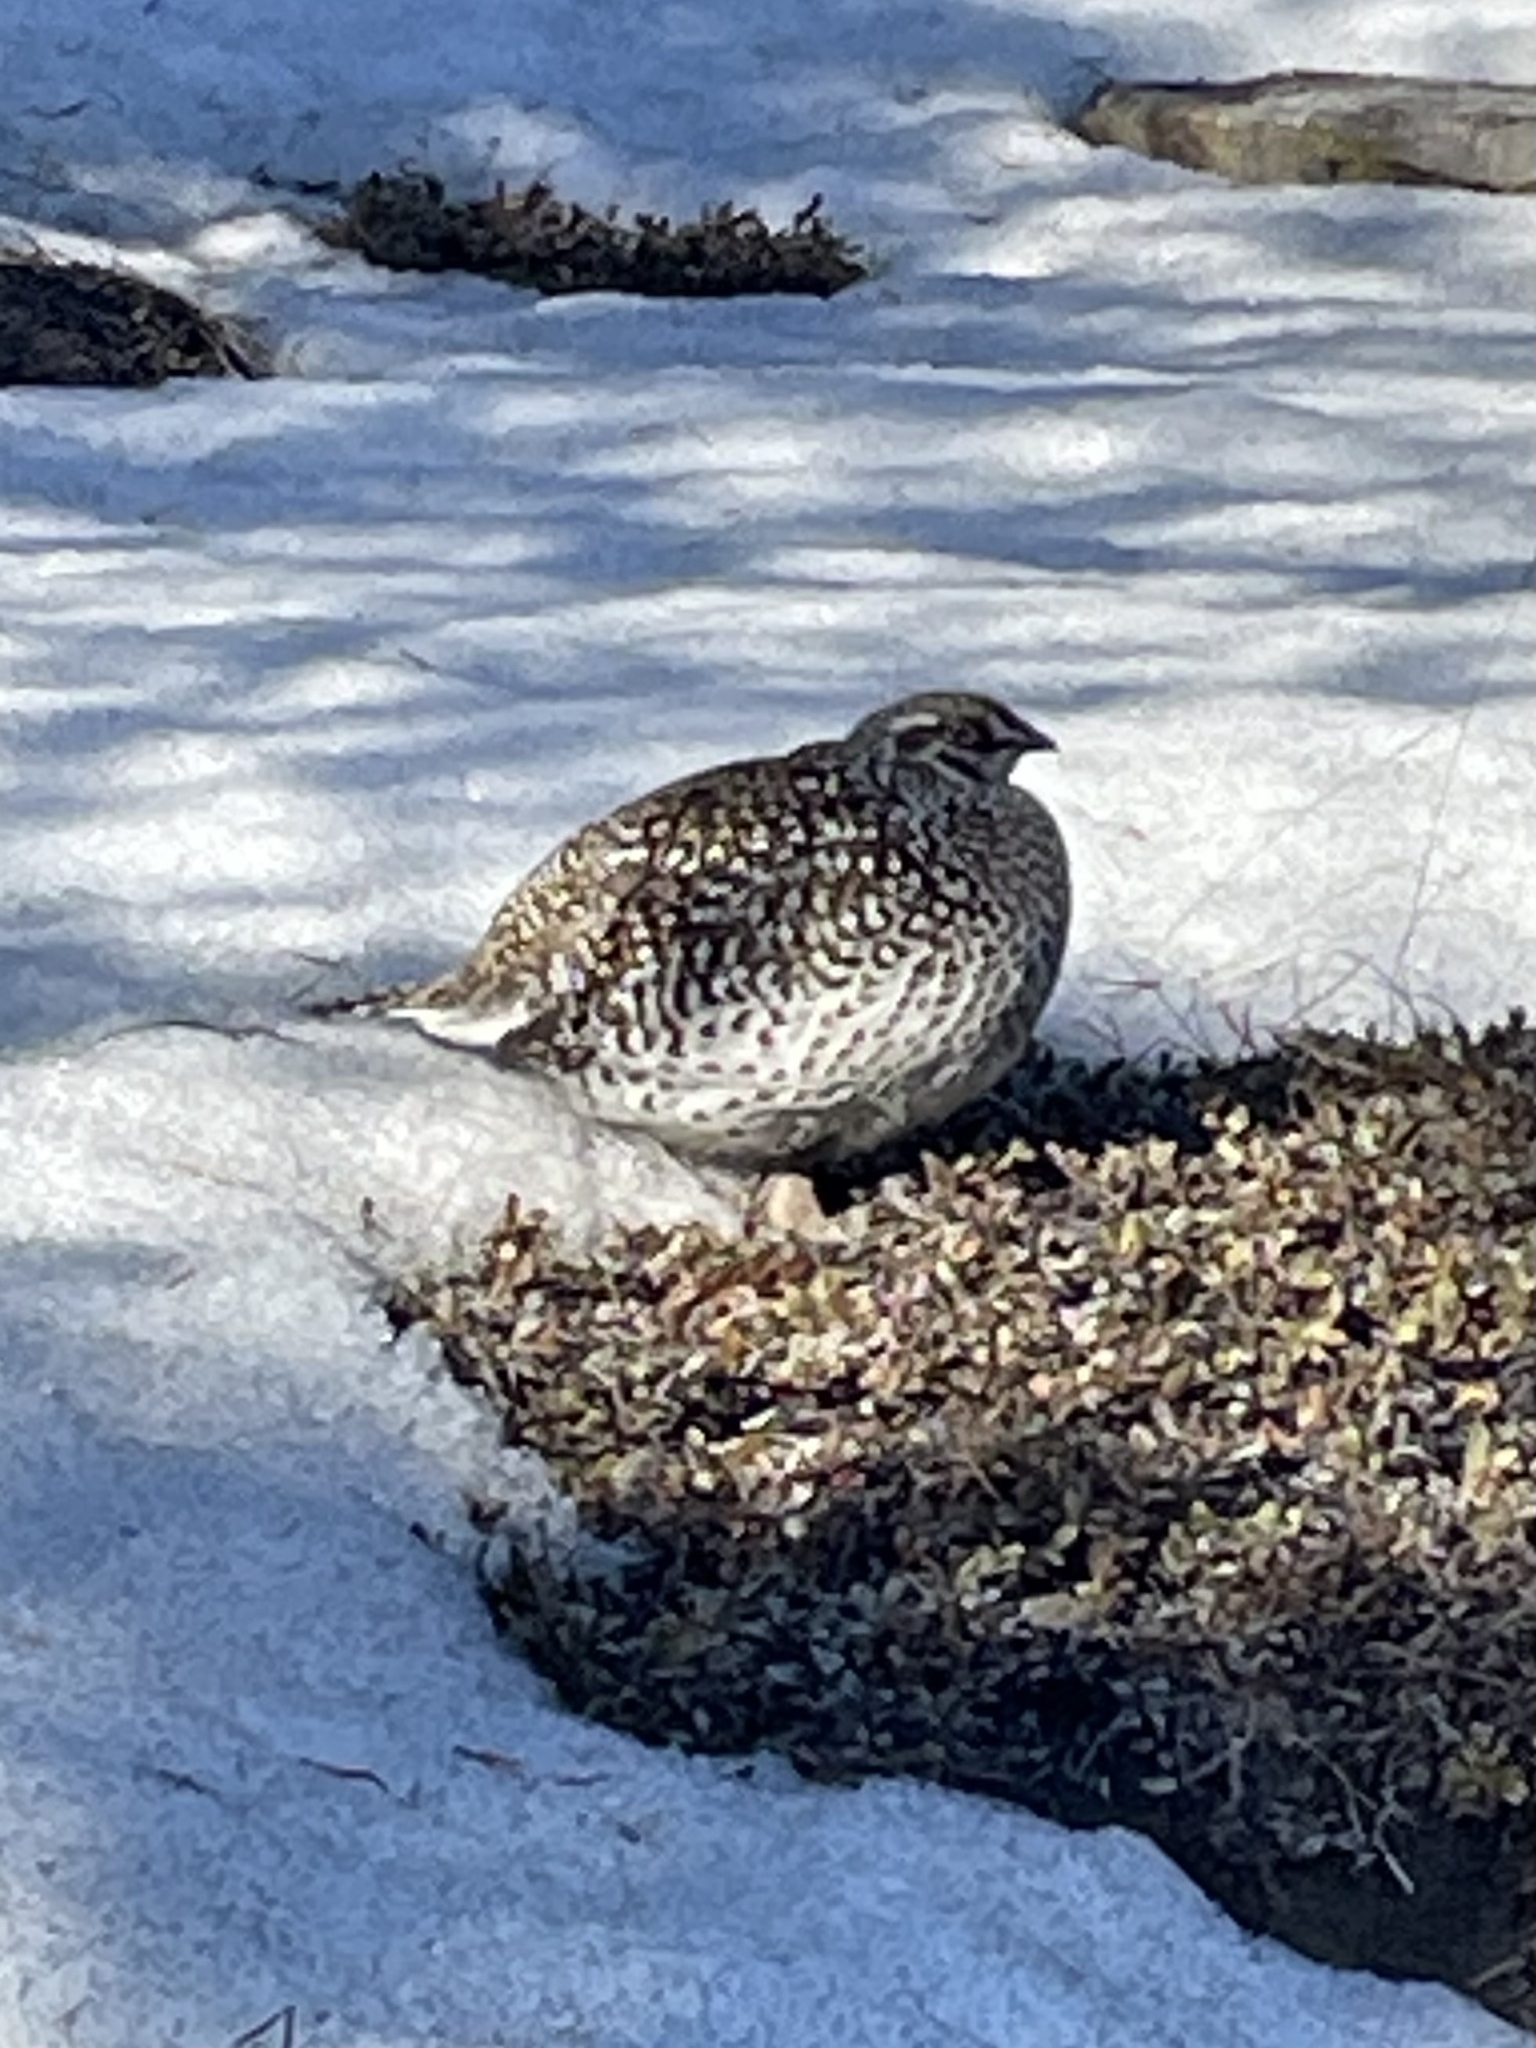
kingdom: Animalia
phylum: Chordata
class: Aves
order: Galliformes
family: Phasianidae
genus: Tympanuchus
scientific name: Tympanuchus phasianellus
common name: Sharp-tailed grouse
